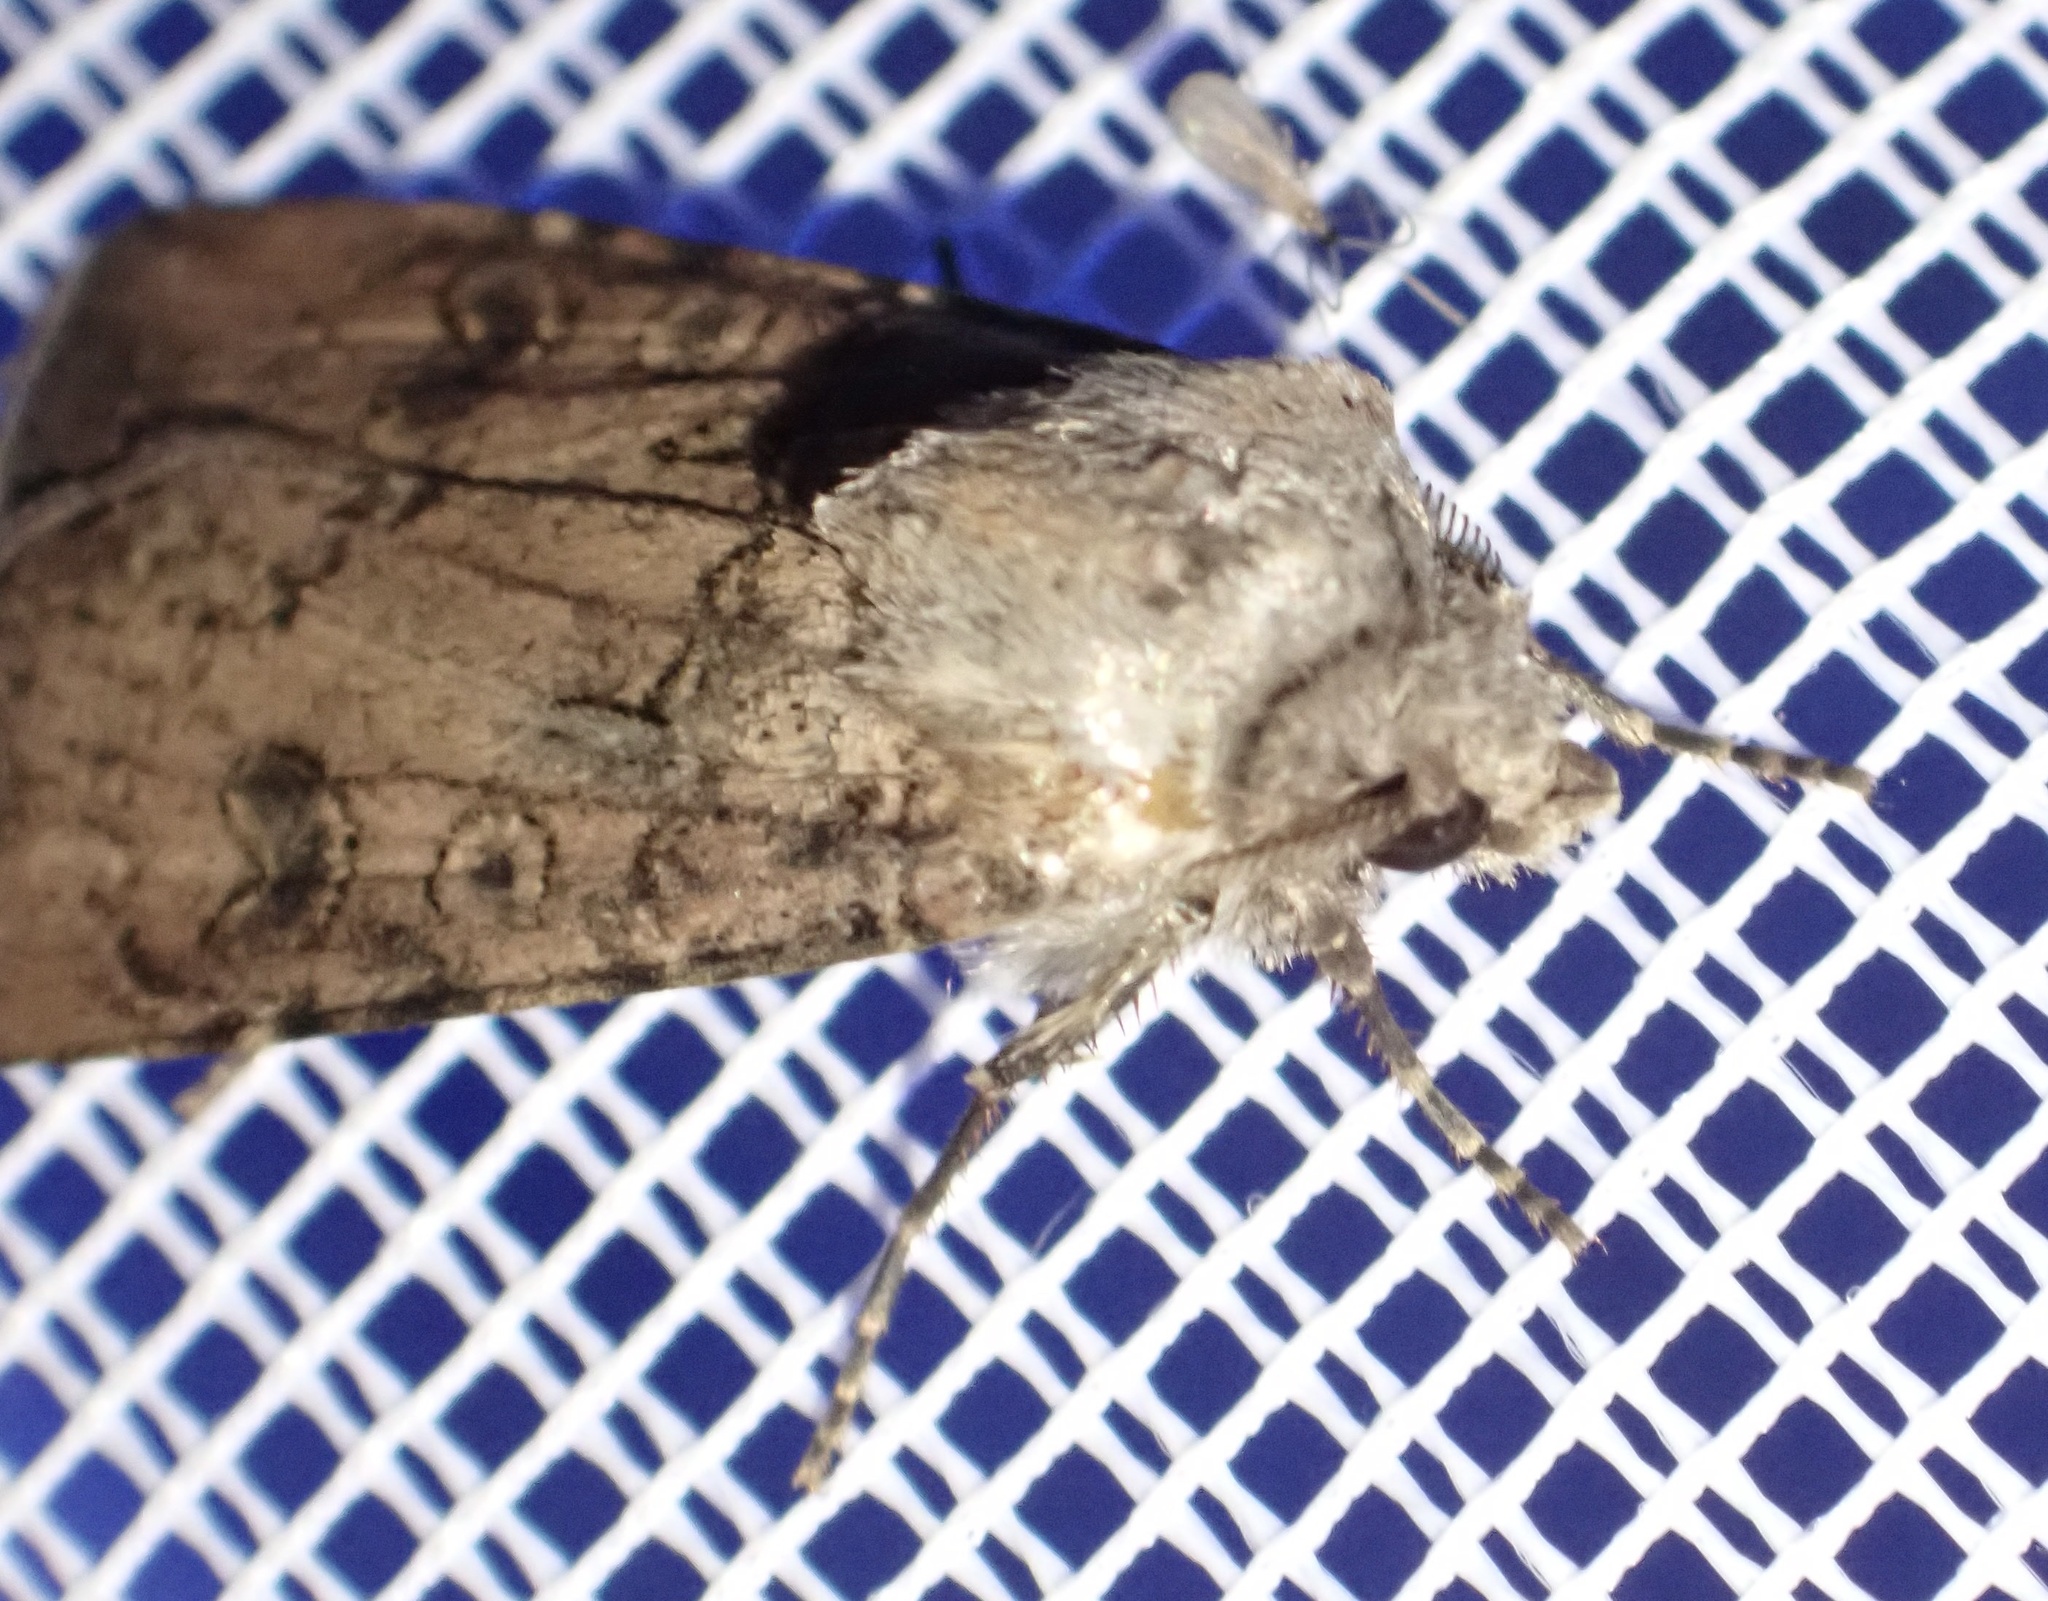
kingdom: Animalia
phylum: Arthropoda
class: Insecta
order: Lepidoptera
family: Noctuidae
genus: Agrotis
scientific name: Agrotis segetum
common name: Turnip moth
